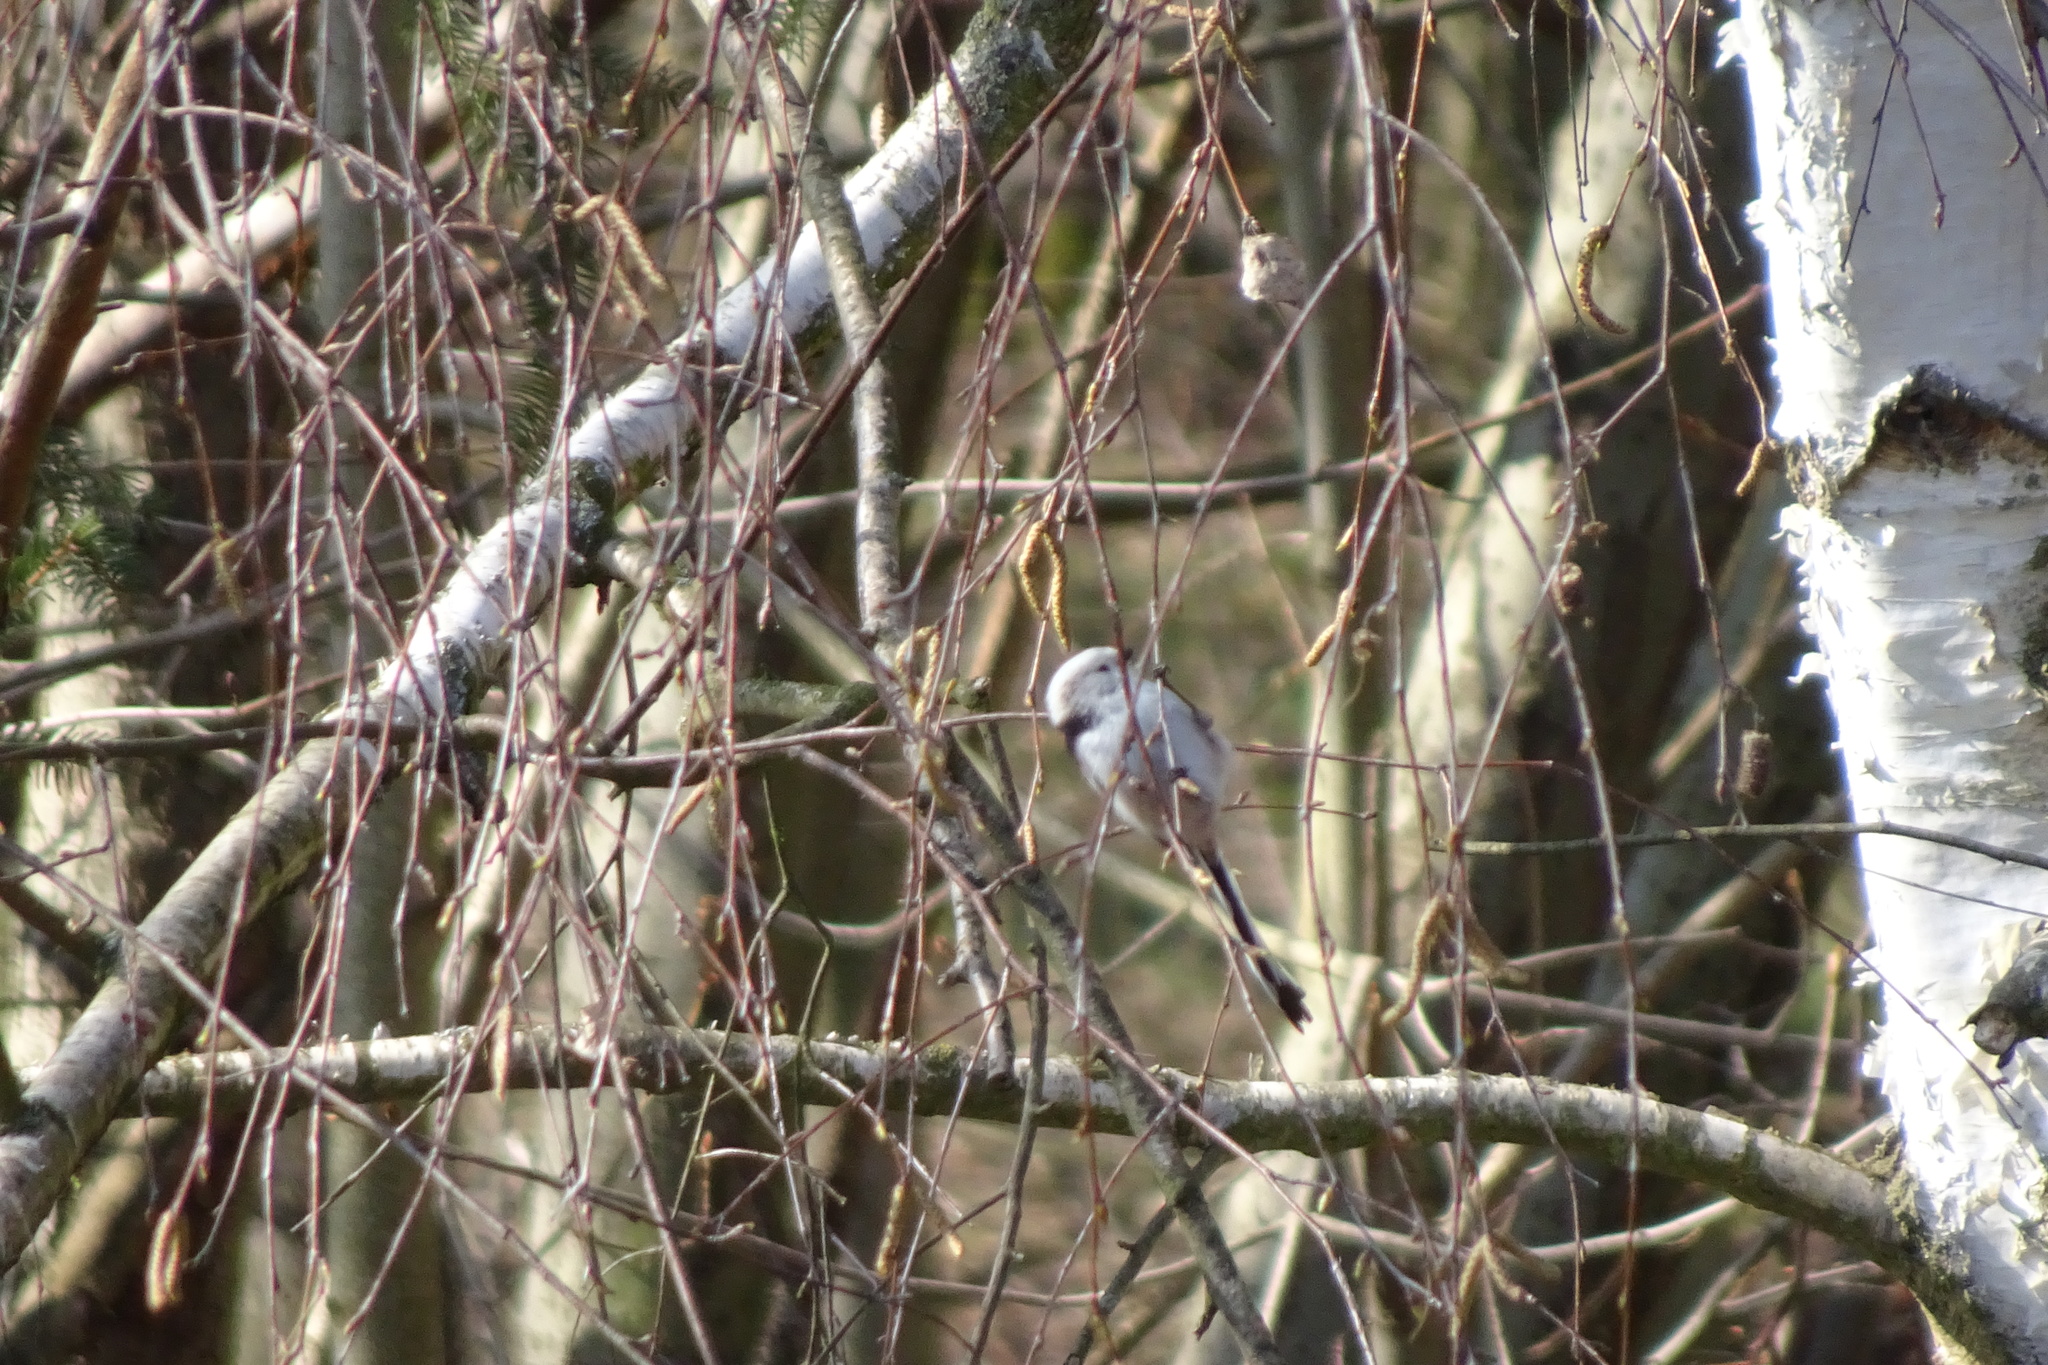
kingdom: Animalia
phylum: Chordata
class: Aves
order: Passeriformes
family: Aegithalidae
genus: Aegithalos
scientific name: Aegithalos caudatus
